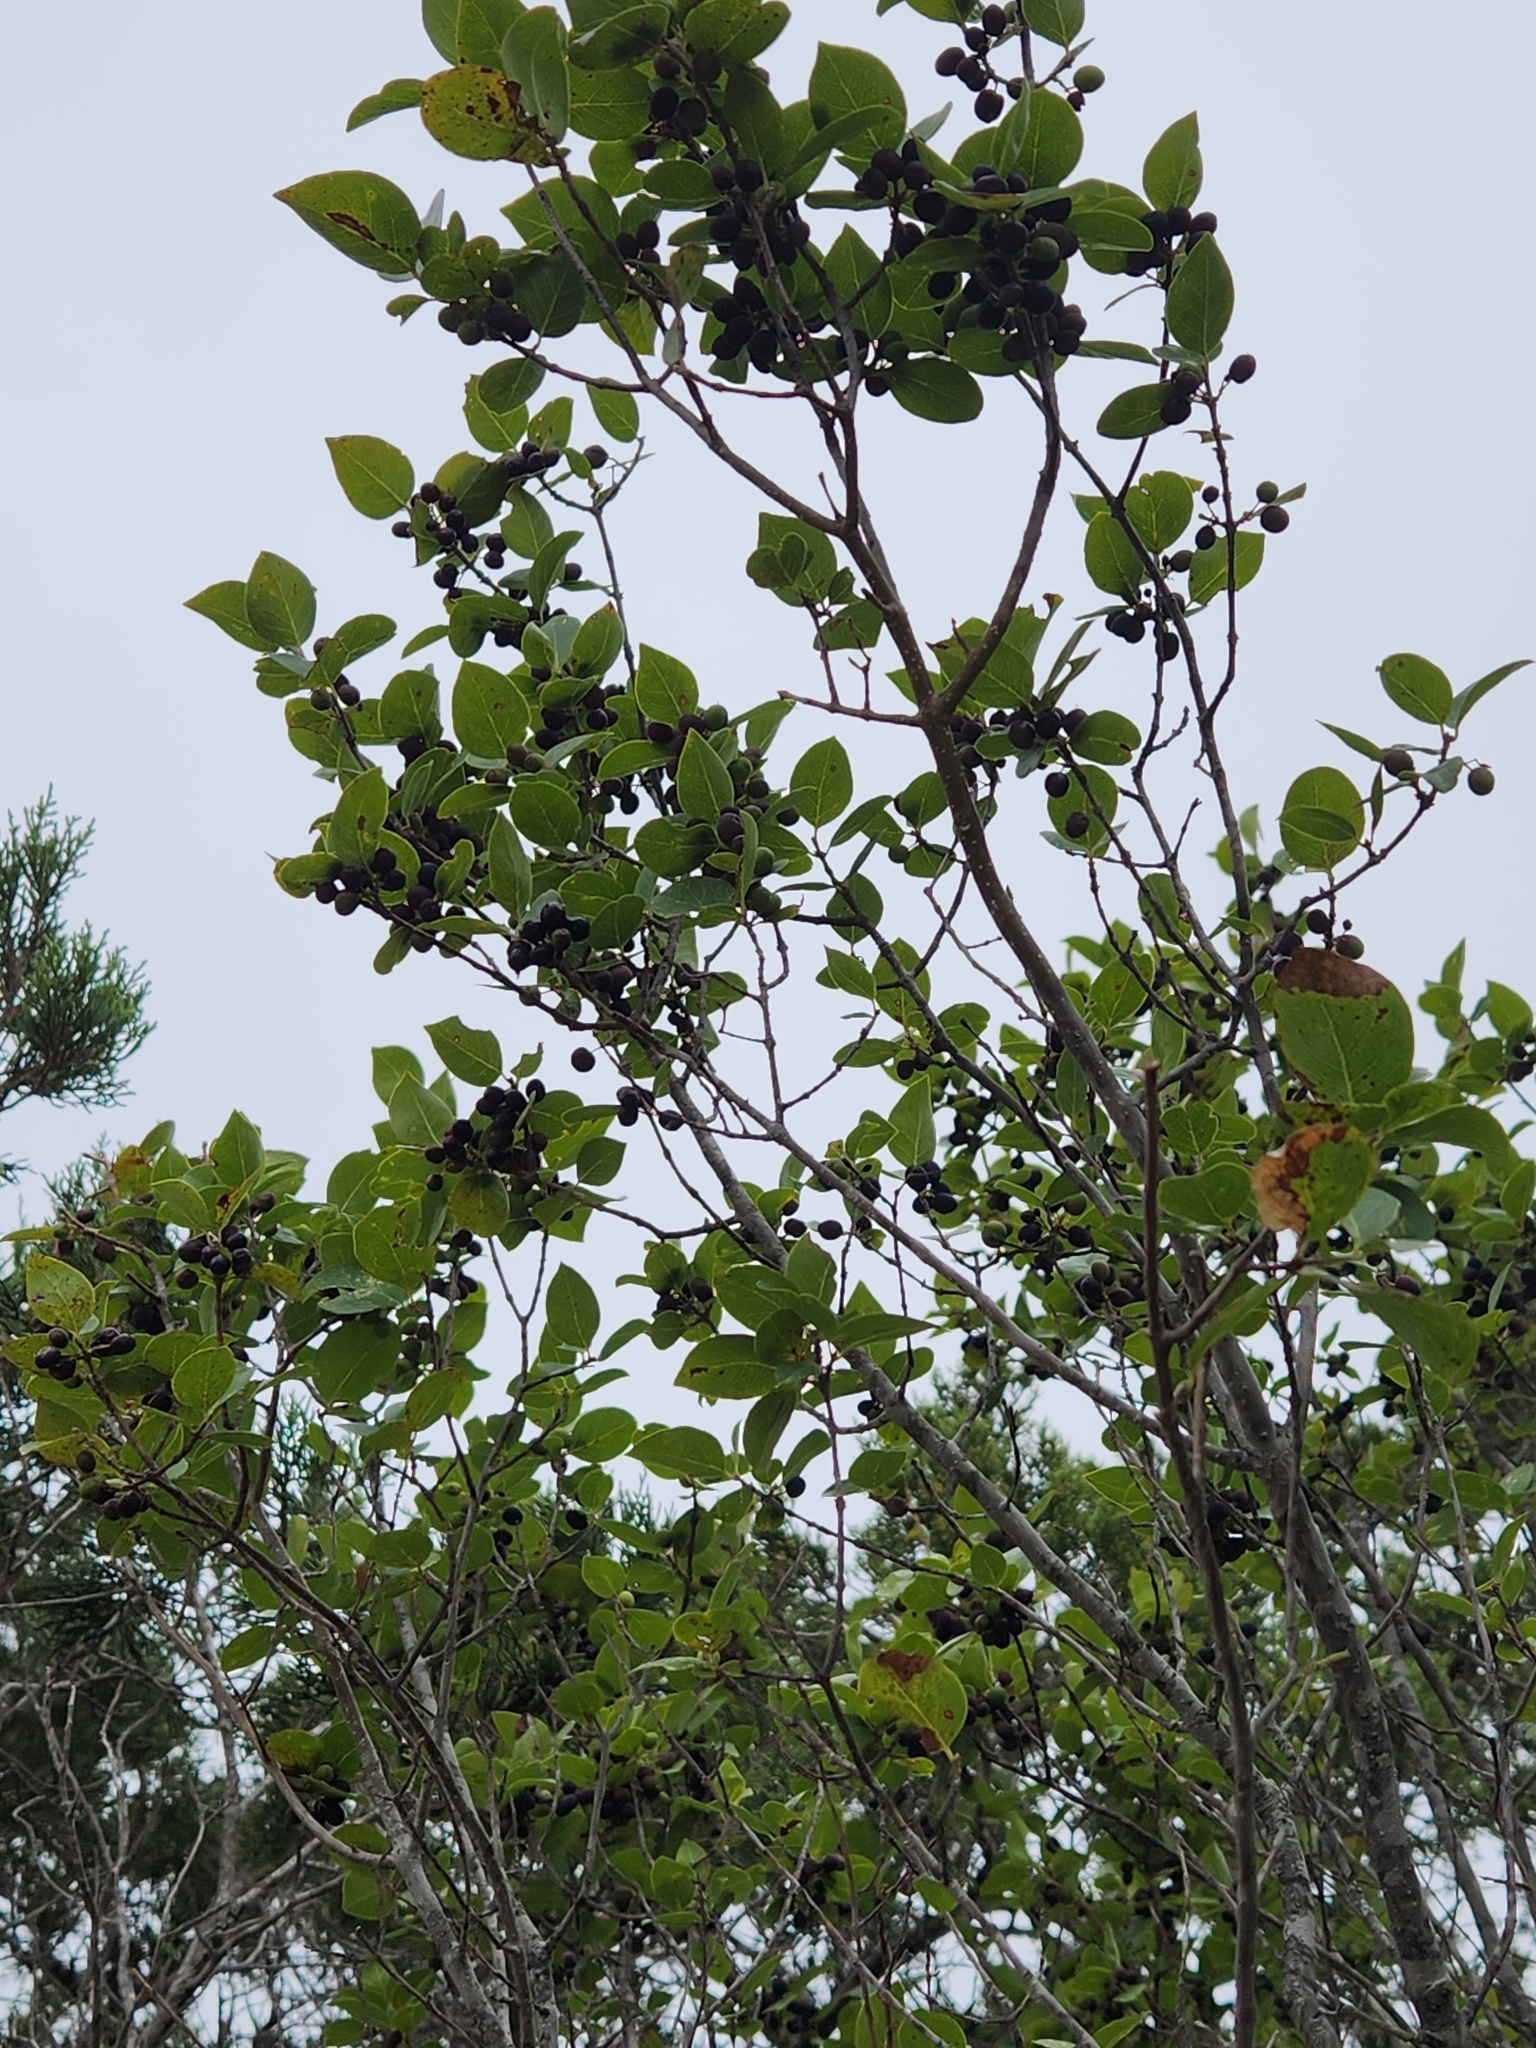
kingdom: Plantae
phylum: Tracheophyta
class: Magnoliopsida
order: Lamiales
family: Oleaceae
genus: Forestiera
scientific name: Forestiera reticulata
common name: Netleaf swamp-privet
